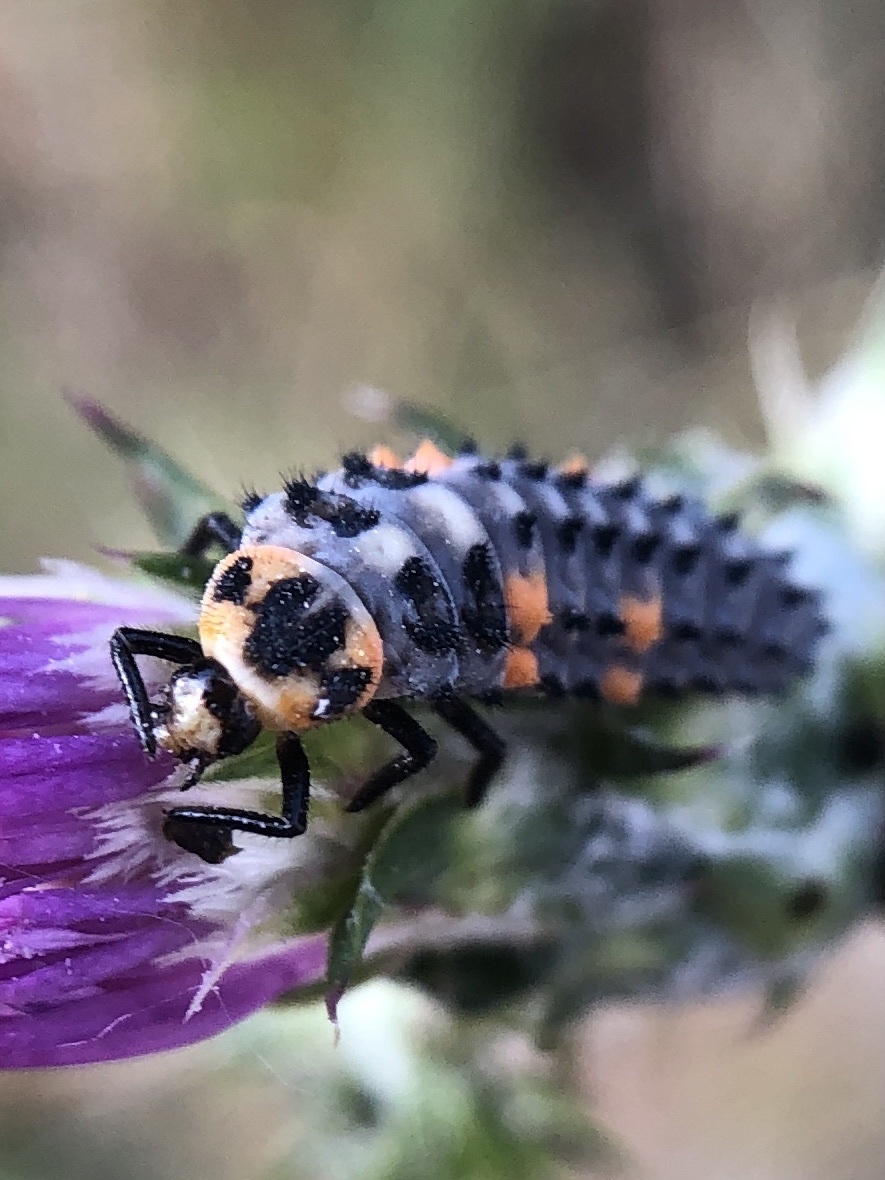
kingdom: Animalia
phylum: Arthropoda
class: Insecta
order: Coleoptera
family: Coccinellidae
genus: Coccinella
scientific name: Coccinella septempunctata
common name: Sevenspotted lady beetle
